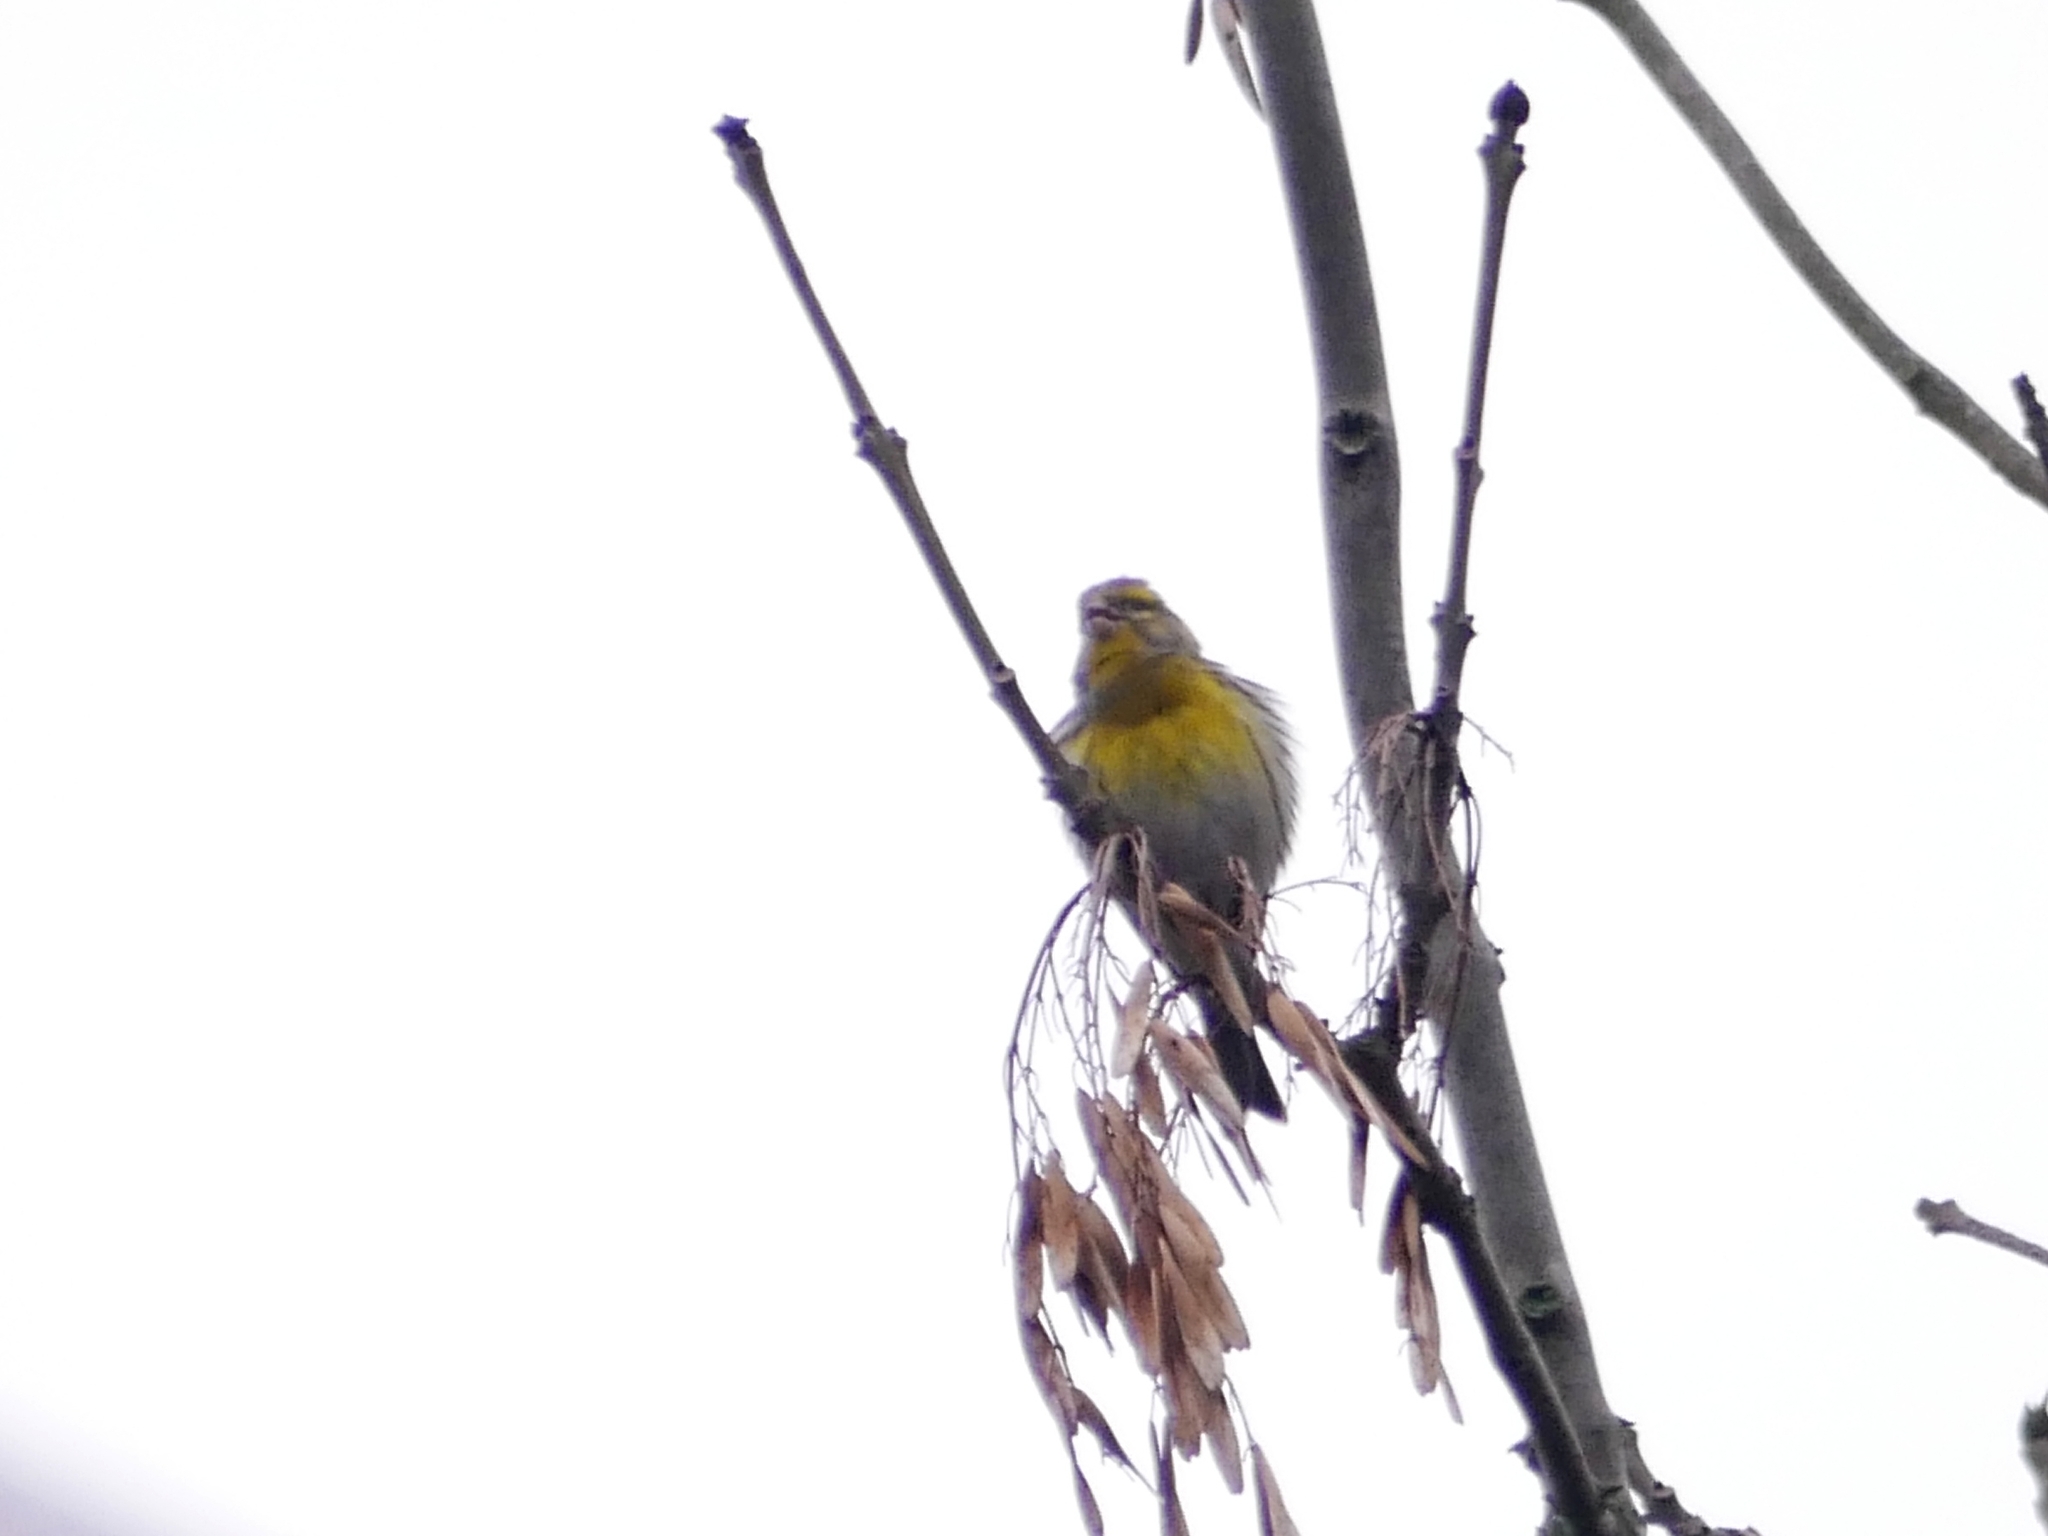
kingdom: Animalia
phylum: Chordata
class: Aves
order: Passeriformes
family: Fringillidae
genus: Serinus
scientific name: Serinus serinus
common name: European serin
